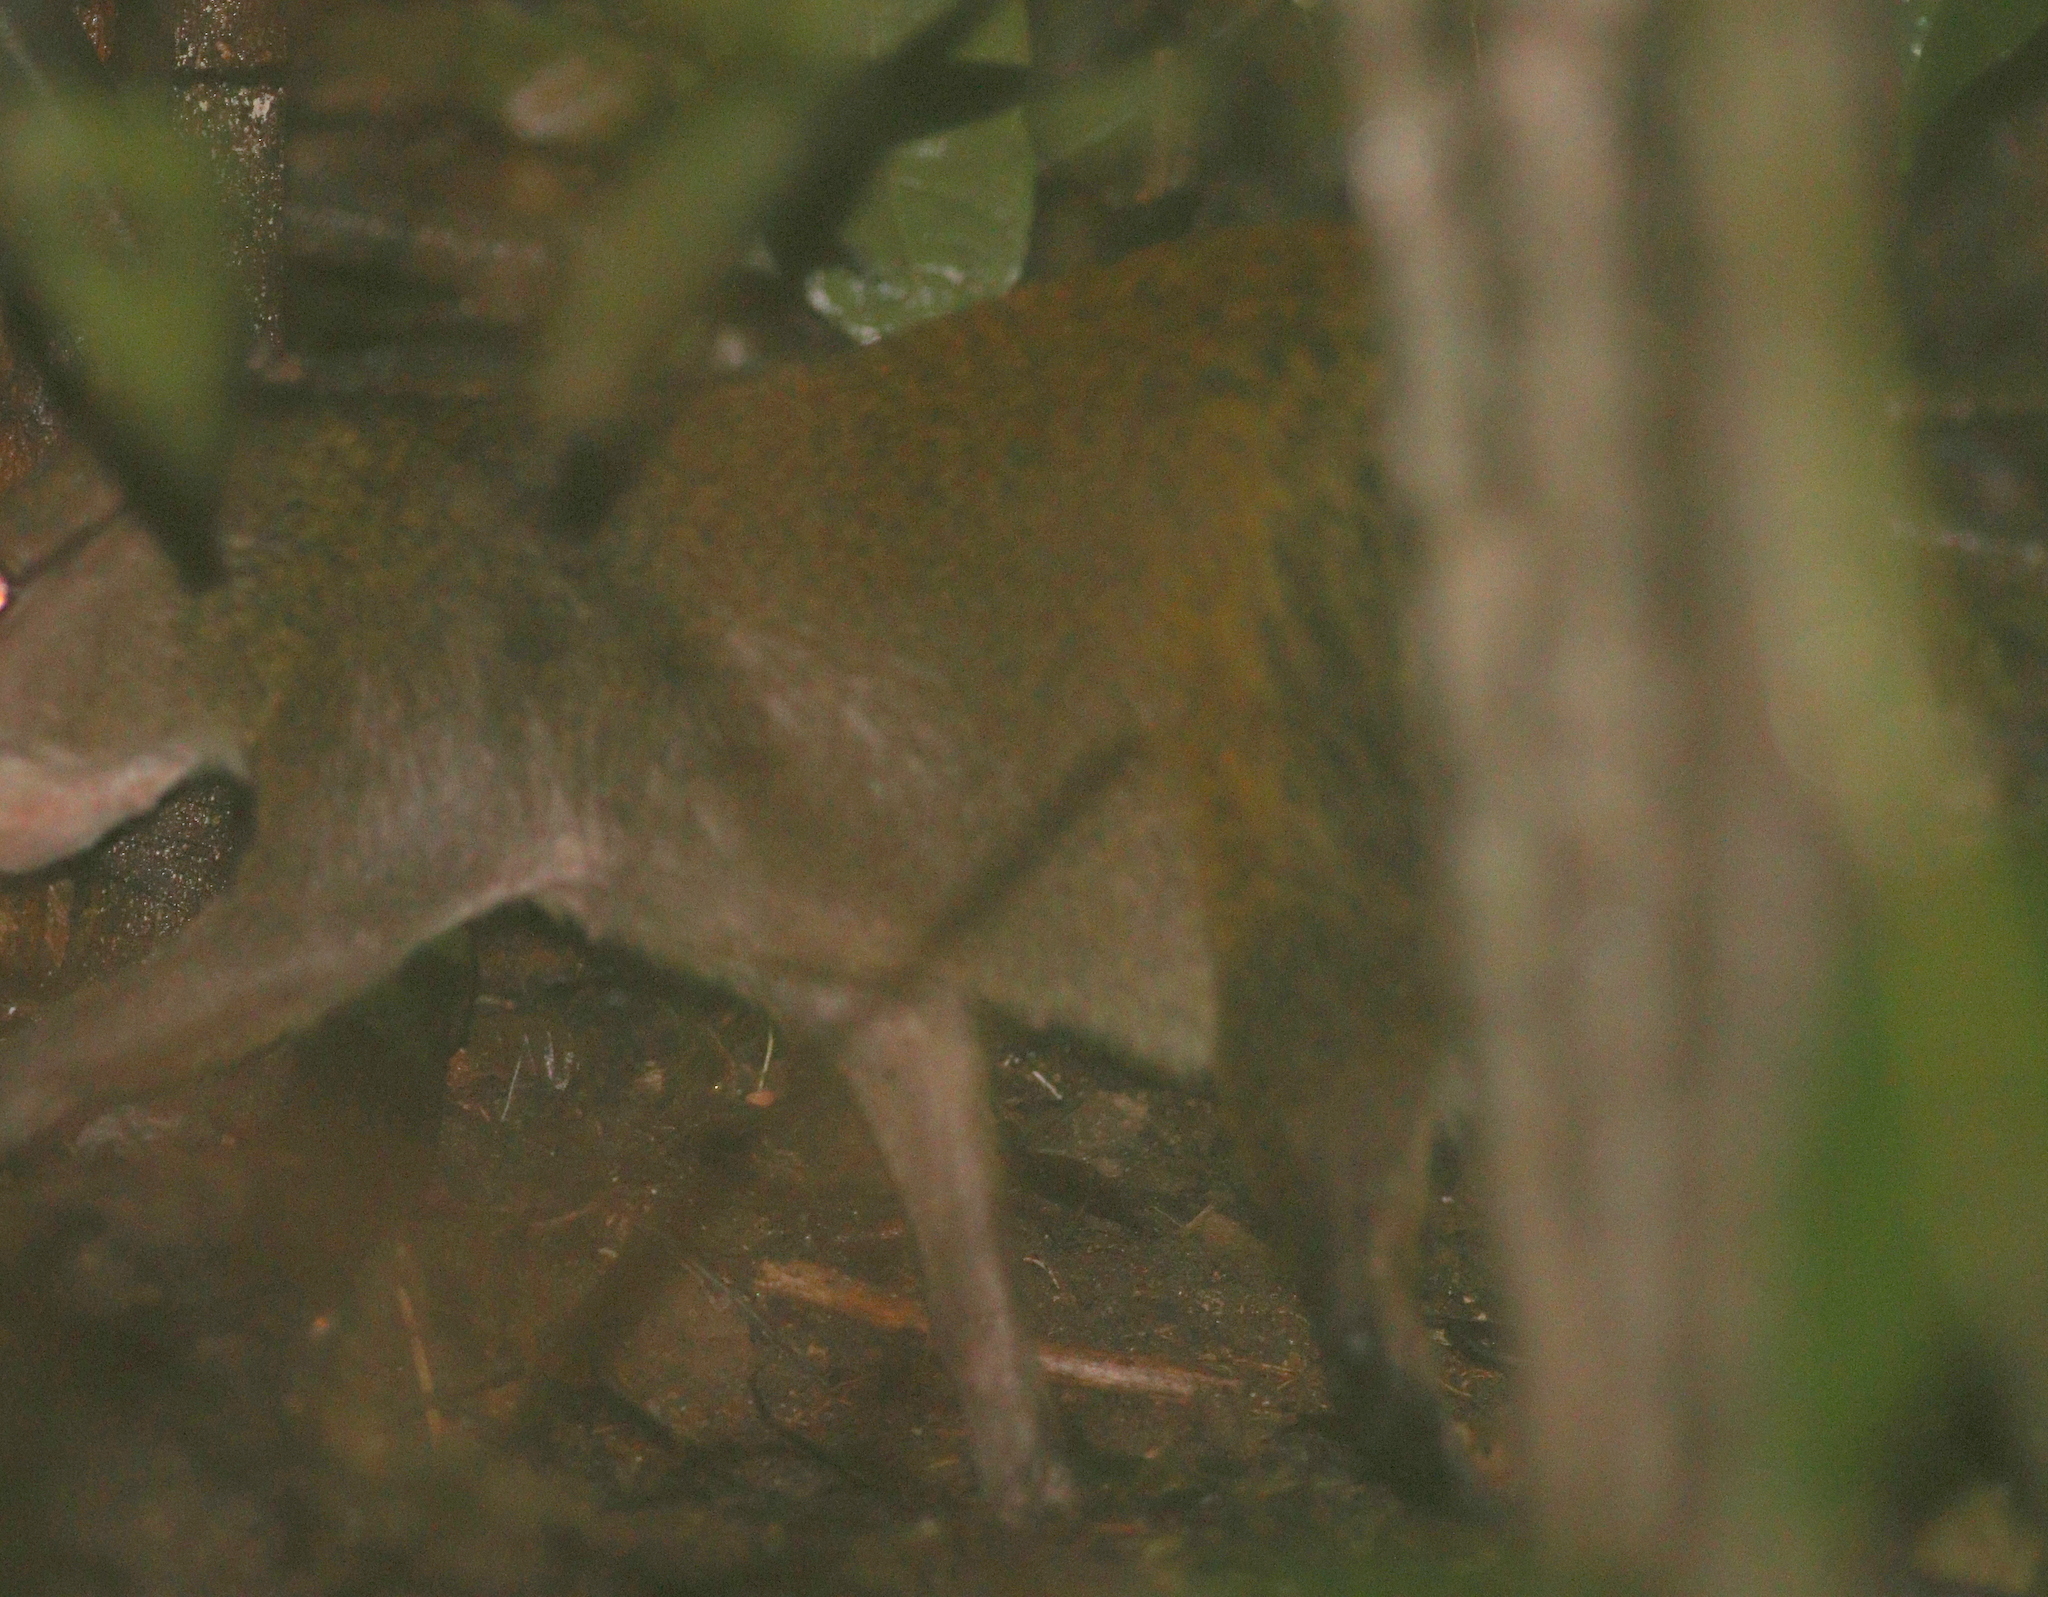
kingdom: Animalia
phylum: Chordata
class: Mammalia
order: Rodentia
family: Dasyproctidae
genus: Dasyprocta
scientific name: Dasyprocta punctata
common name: Central american agouti
